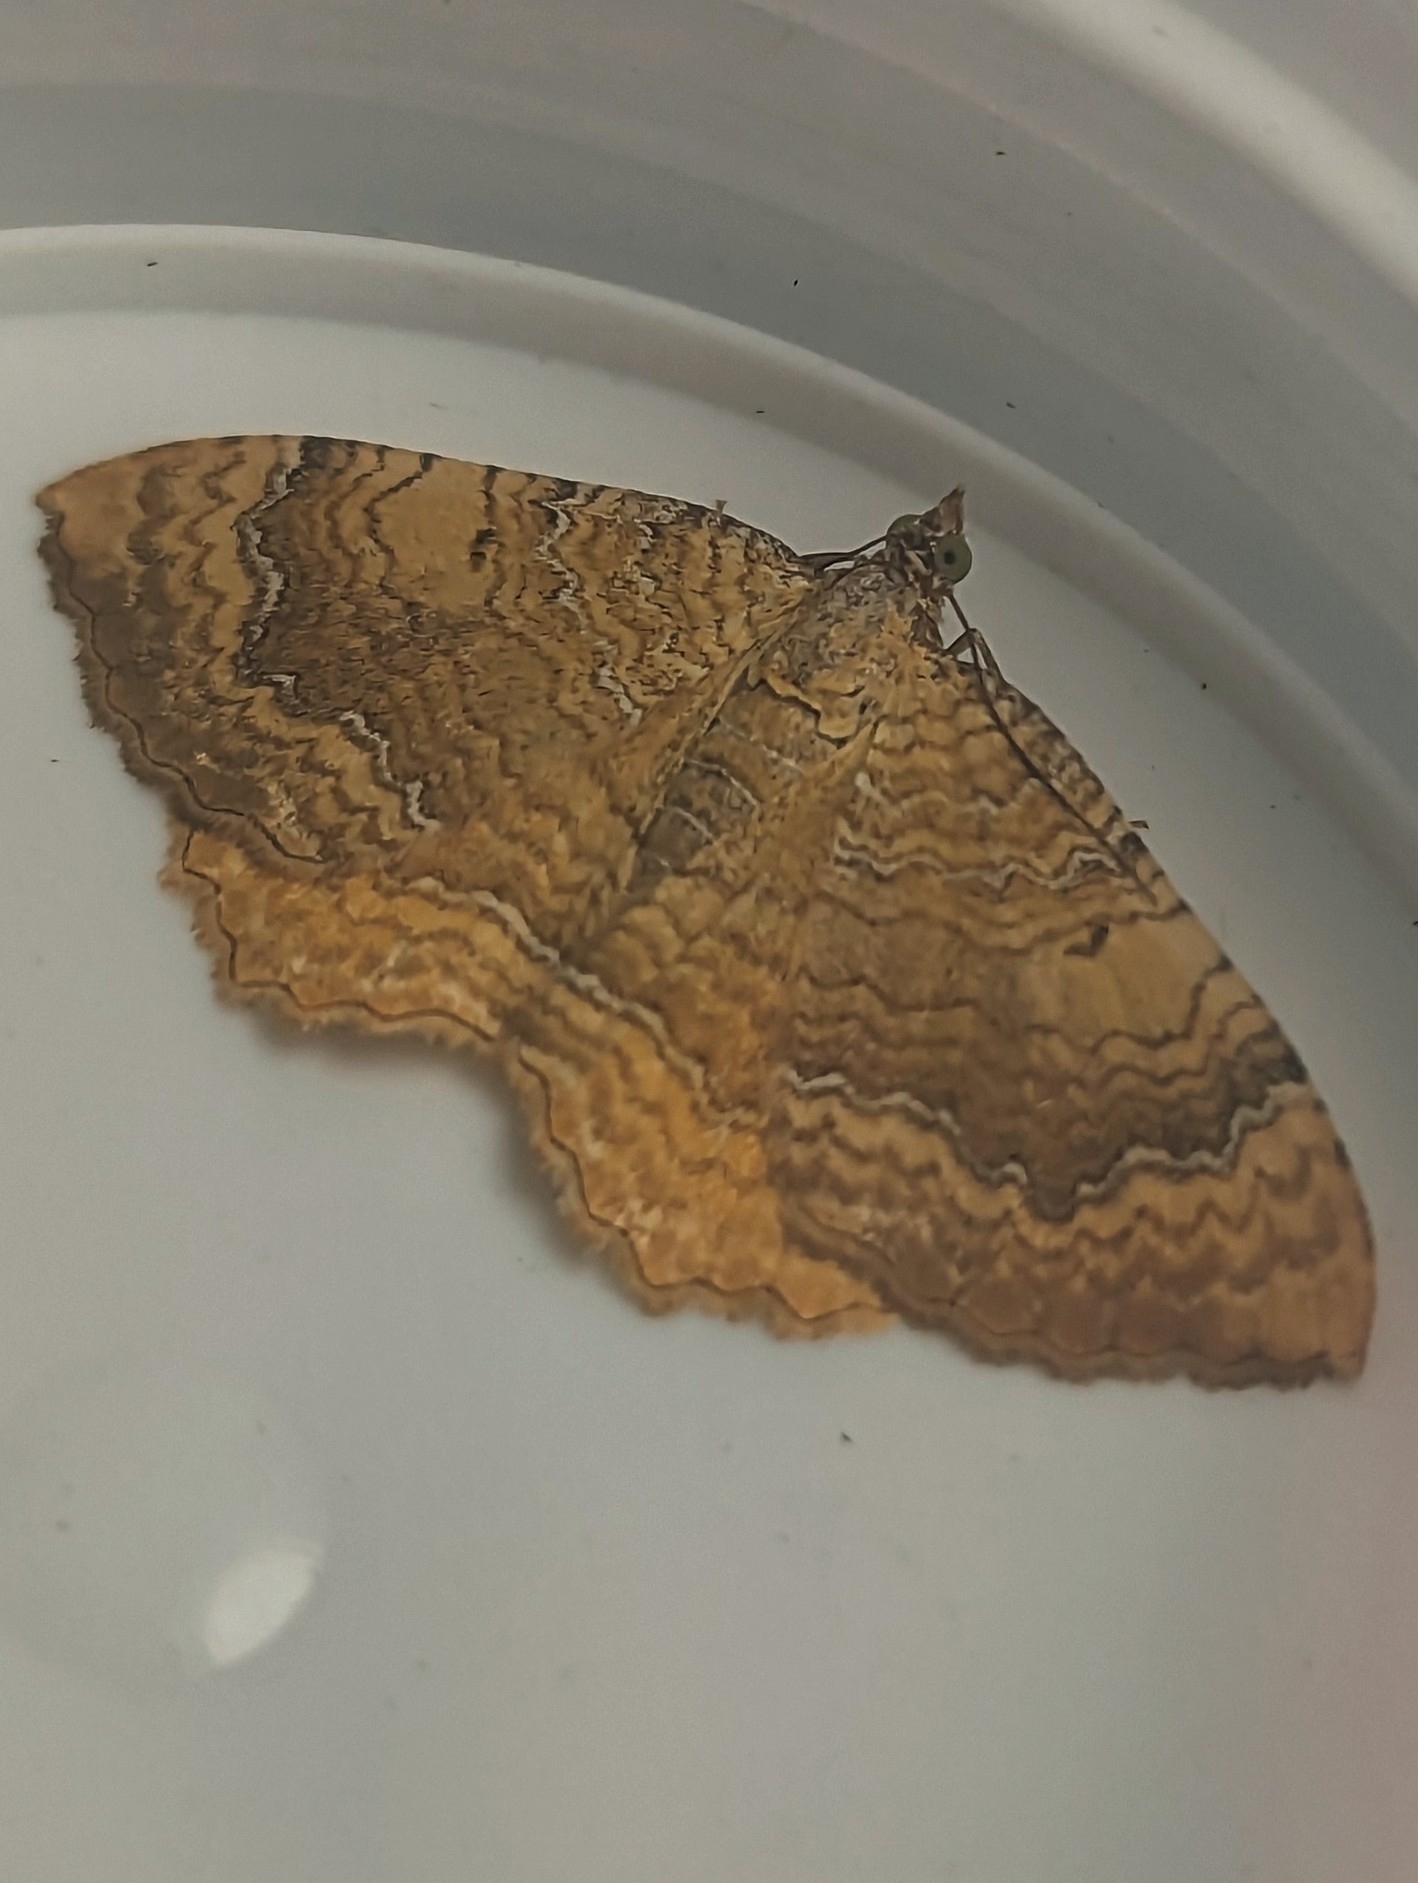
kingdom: Animalia
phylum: Arthropoda
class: Insecta
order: Lepidoptera
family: Geometridae
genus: Camptogramma
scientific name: Camptogramma bilineata
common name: Yellow shell
